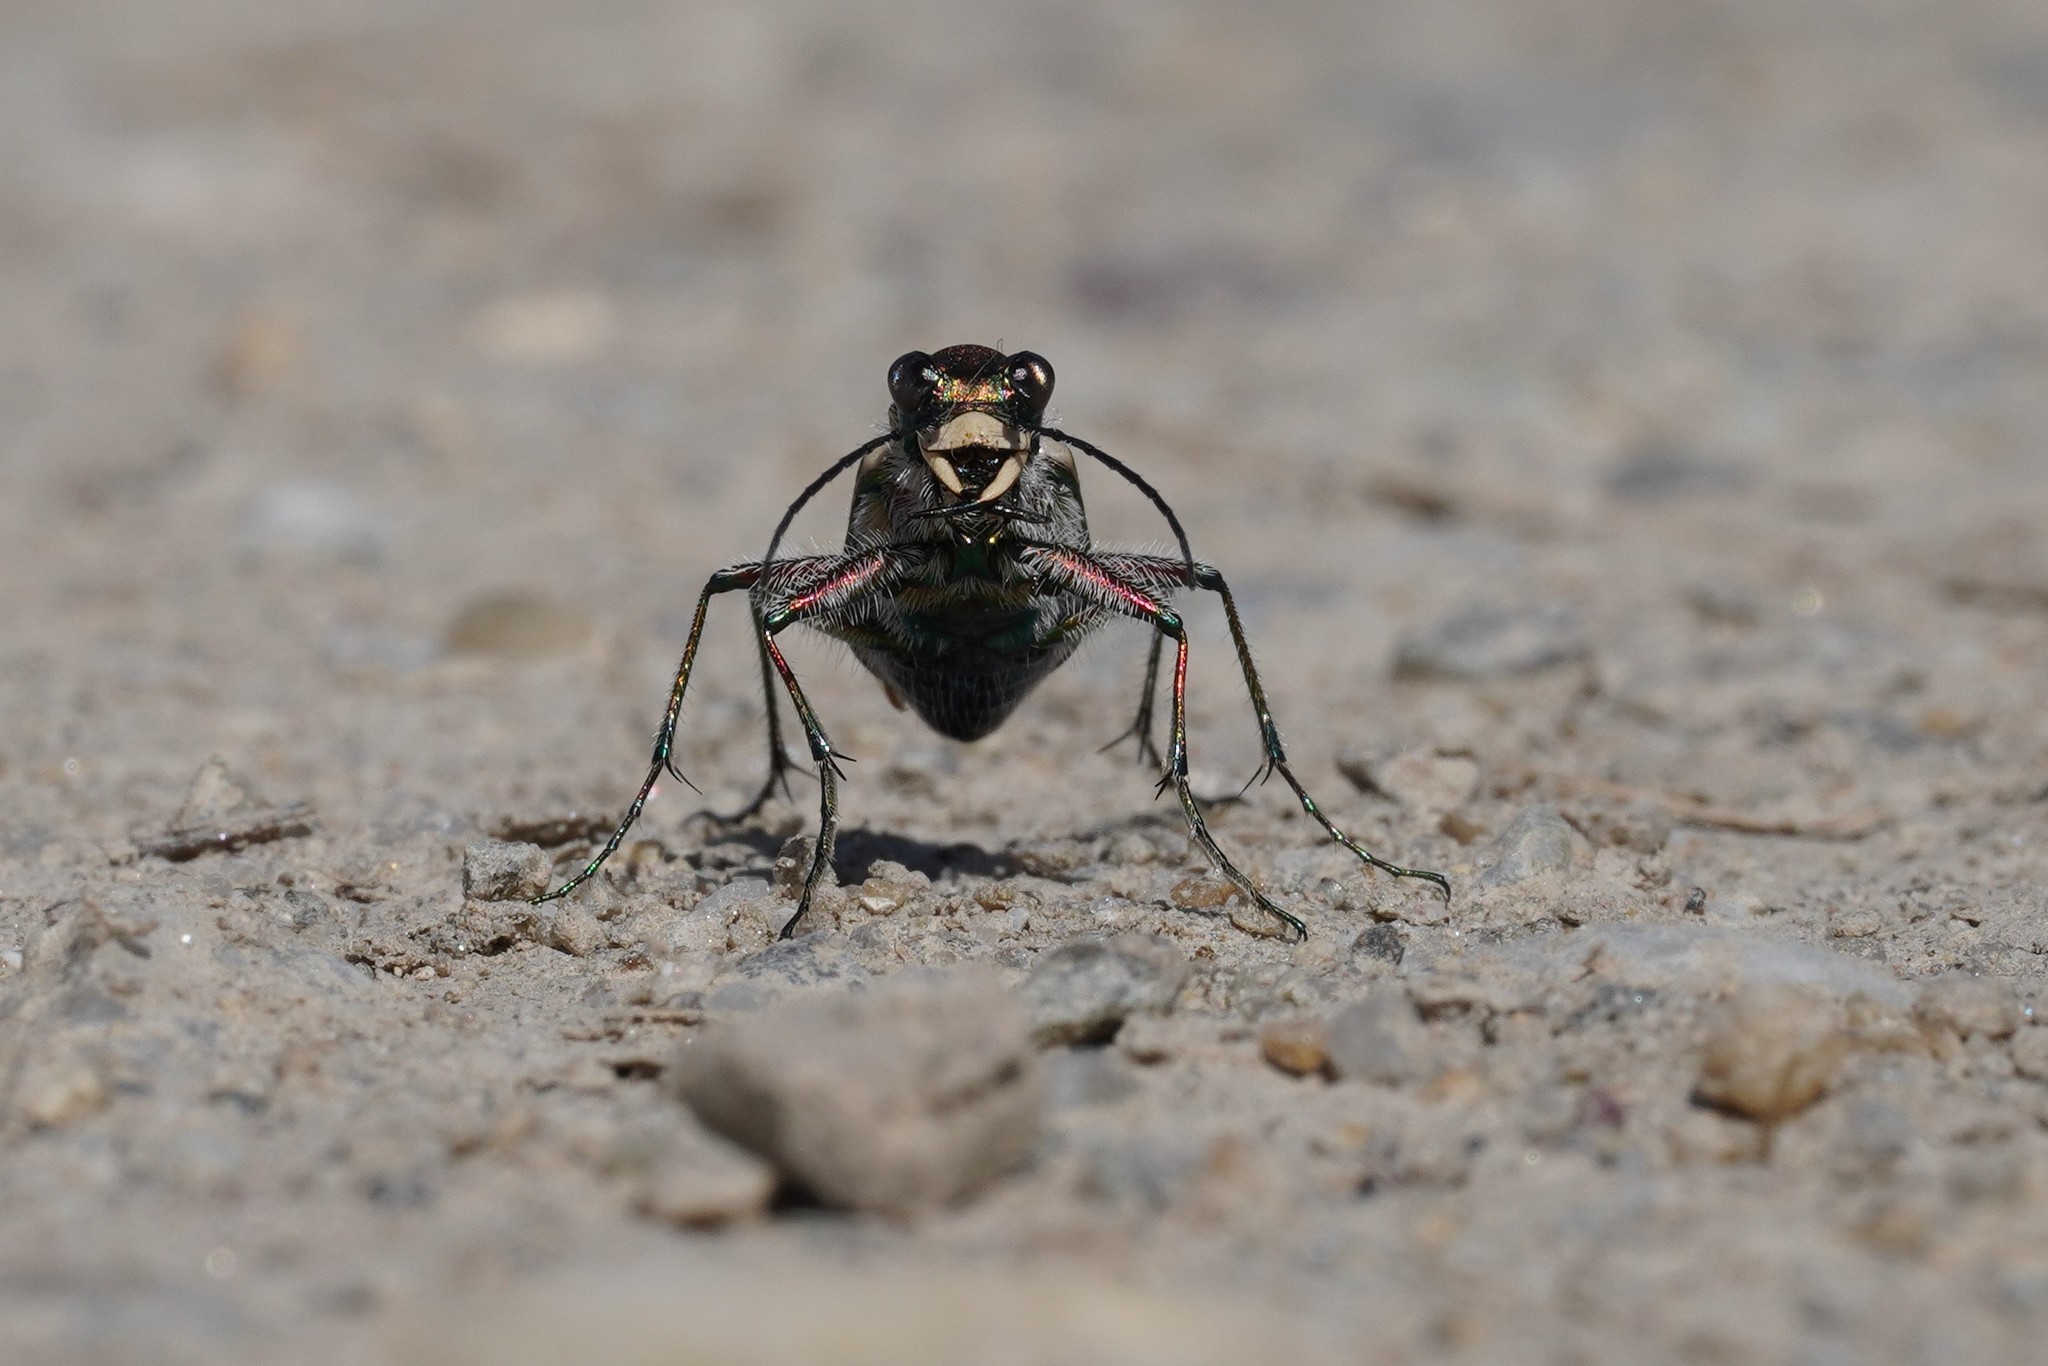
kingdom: Animalia
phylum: Arthropoda
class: Insecta
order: Coleoptera
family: Carabidae
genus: Cicindela
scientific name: Cicindela hybrida
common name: Northern dune tiger beetle
